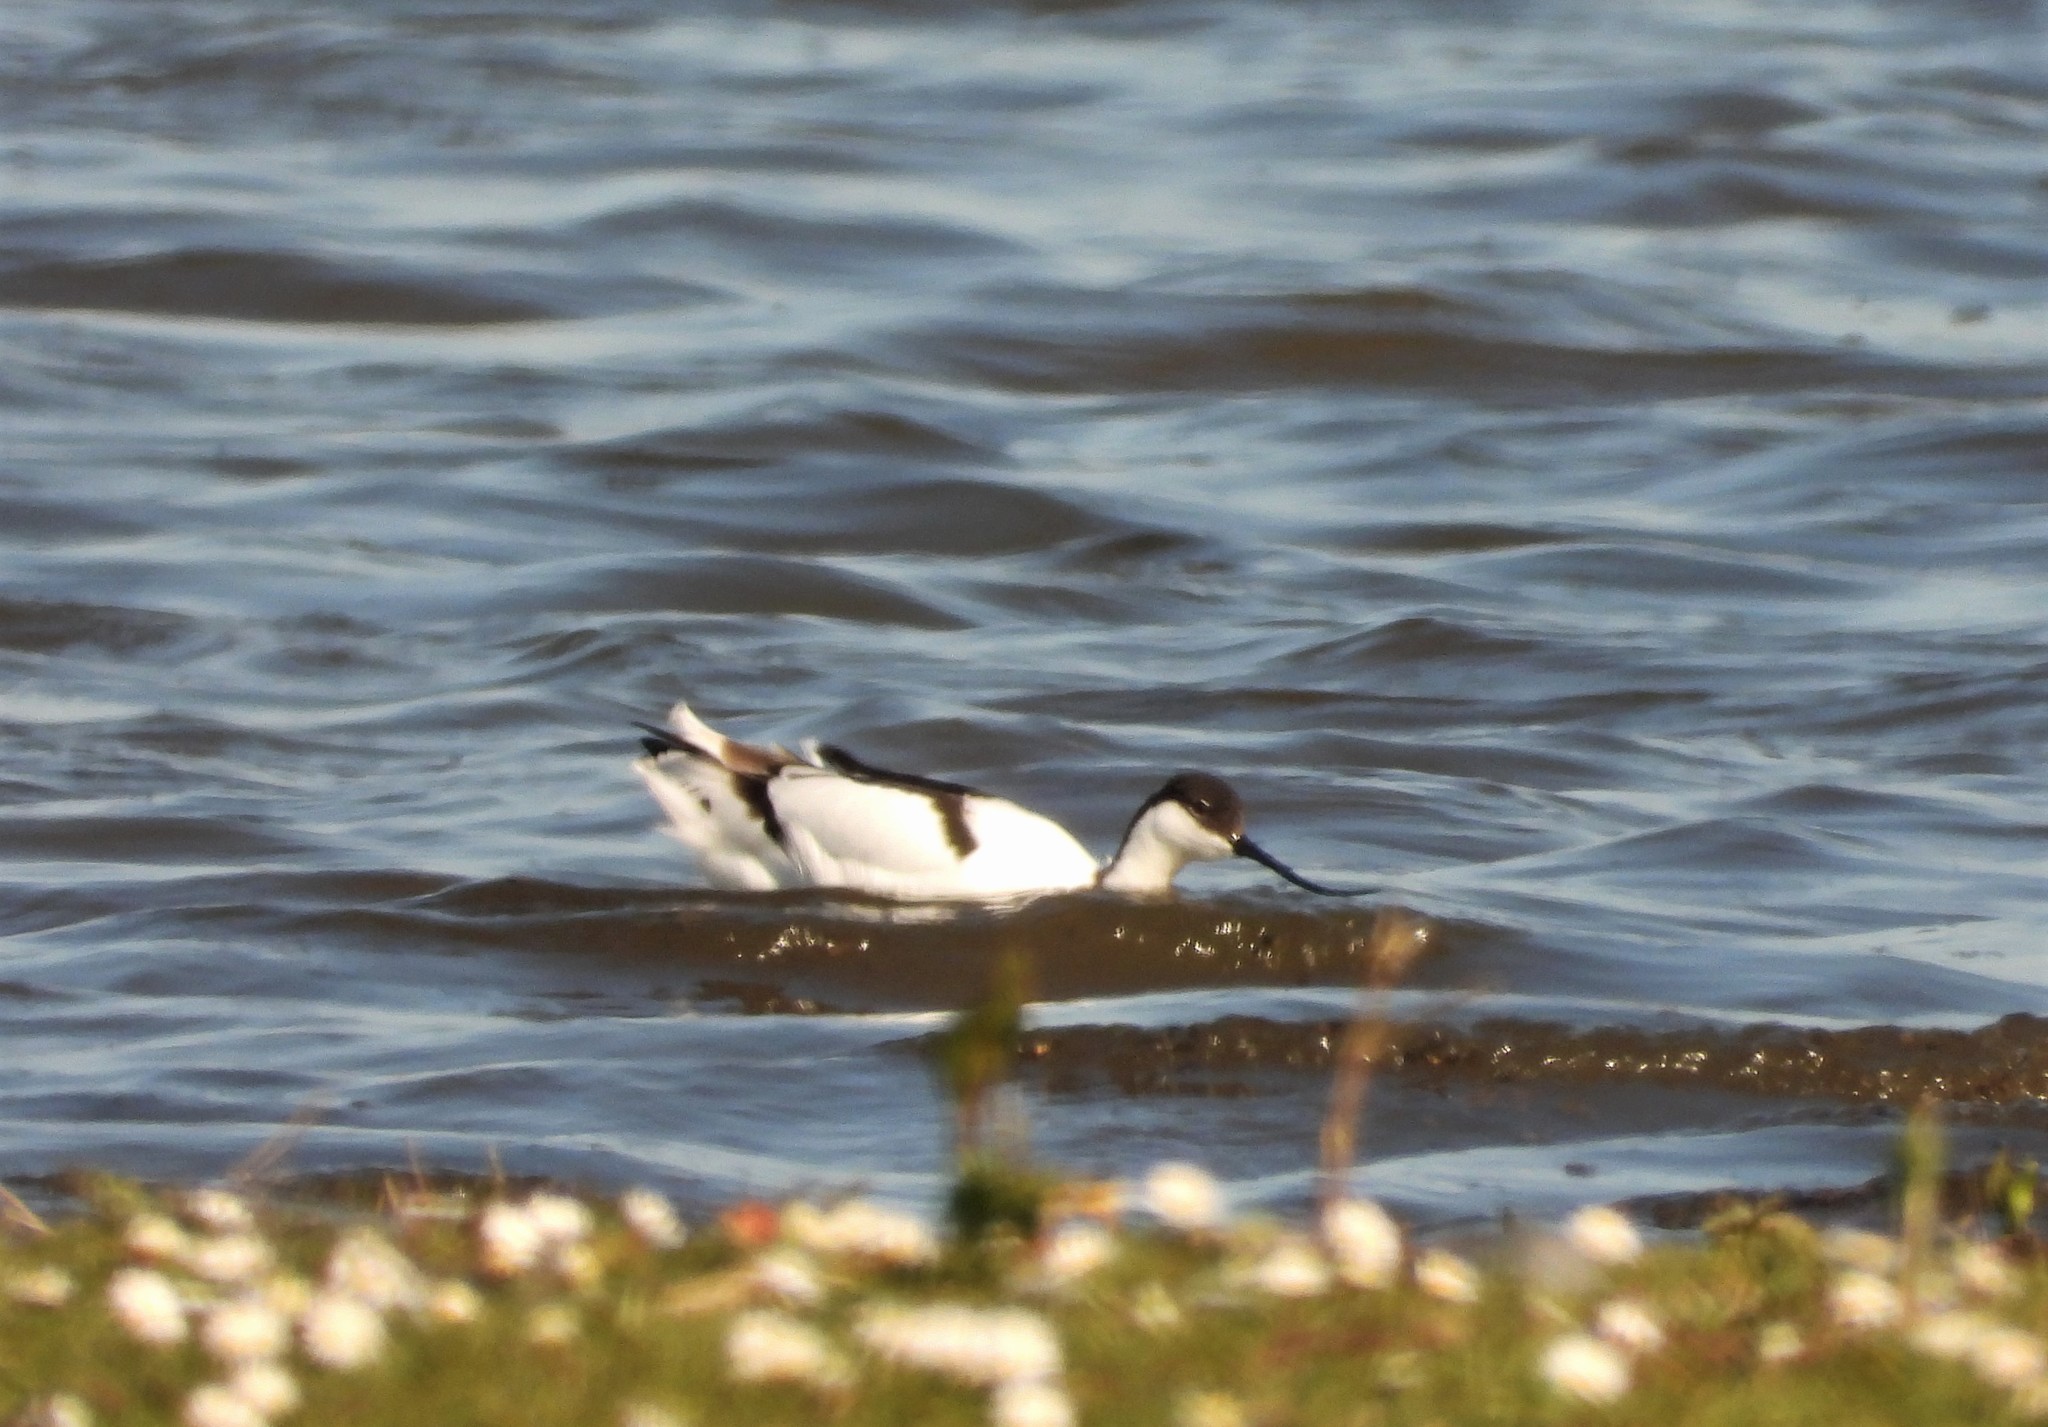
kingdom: Animalia
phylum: Chordata
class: Aves
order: Charadriiformes
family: Recurvirostridae
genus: Recurvirostra
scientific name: Recurvirostra avosetta
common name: Pied avocet
